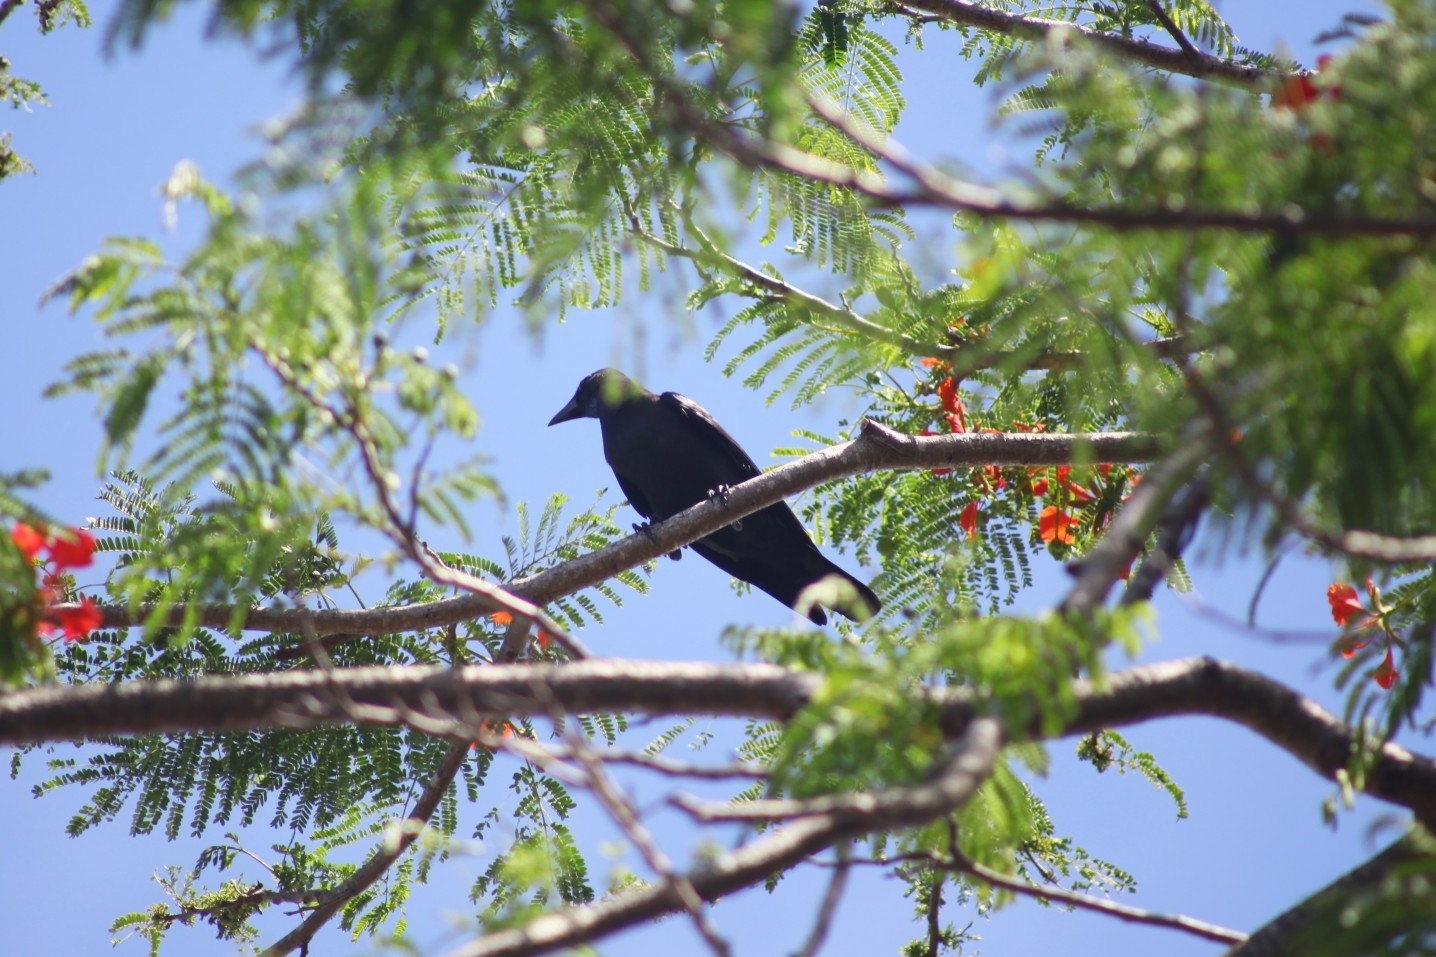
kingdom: Animalia
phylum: Chordata
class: Aves
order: Passeriformes
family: Corvidae
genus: Corvus
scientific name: Corvus splendens
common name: House crow
